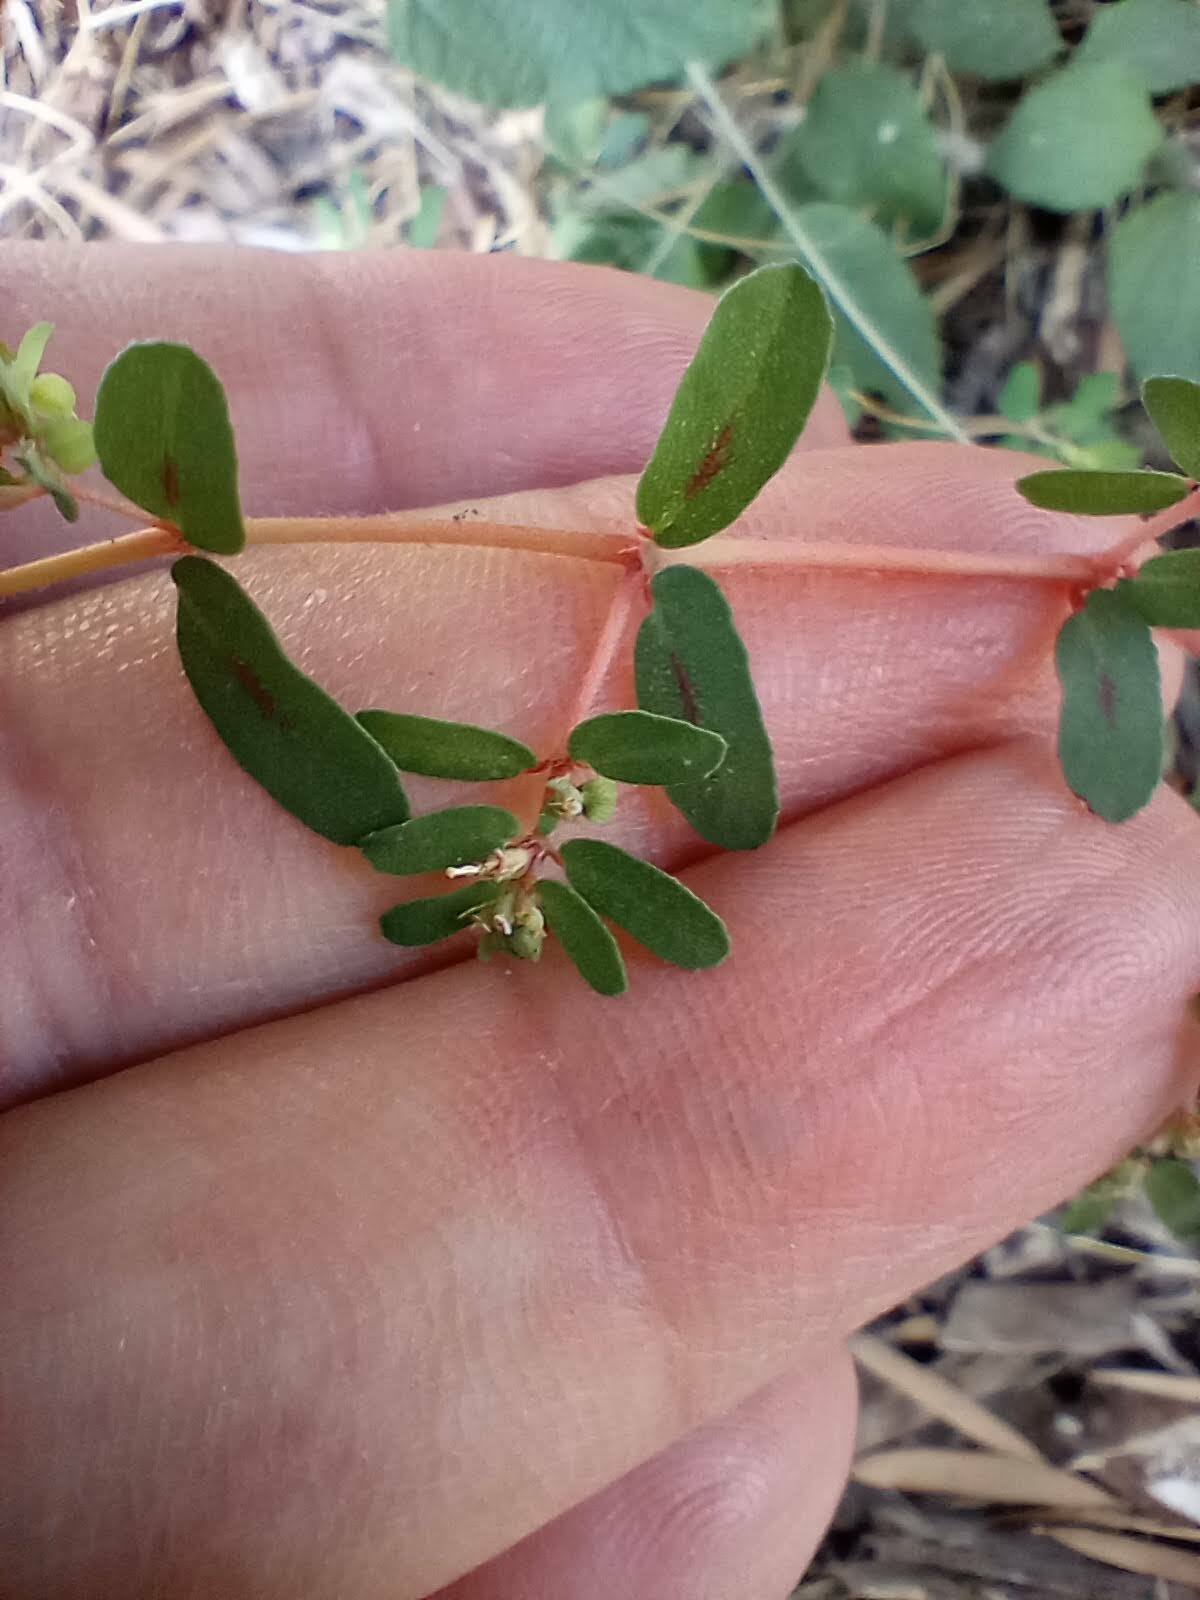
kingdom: Plantae
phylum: Tracheophyta
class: Magnoliopsida
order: Malpighiales
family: Euphorbiaceae
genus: Euphorbia
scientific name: Euphorbia maculata
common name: Spotted spurge
